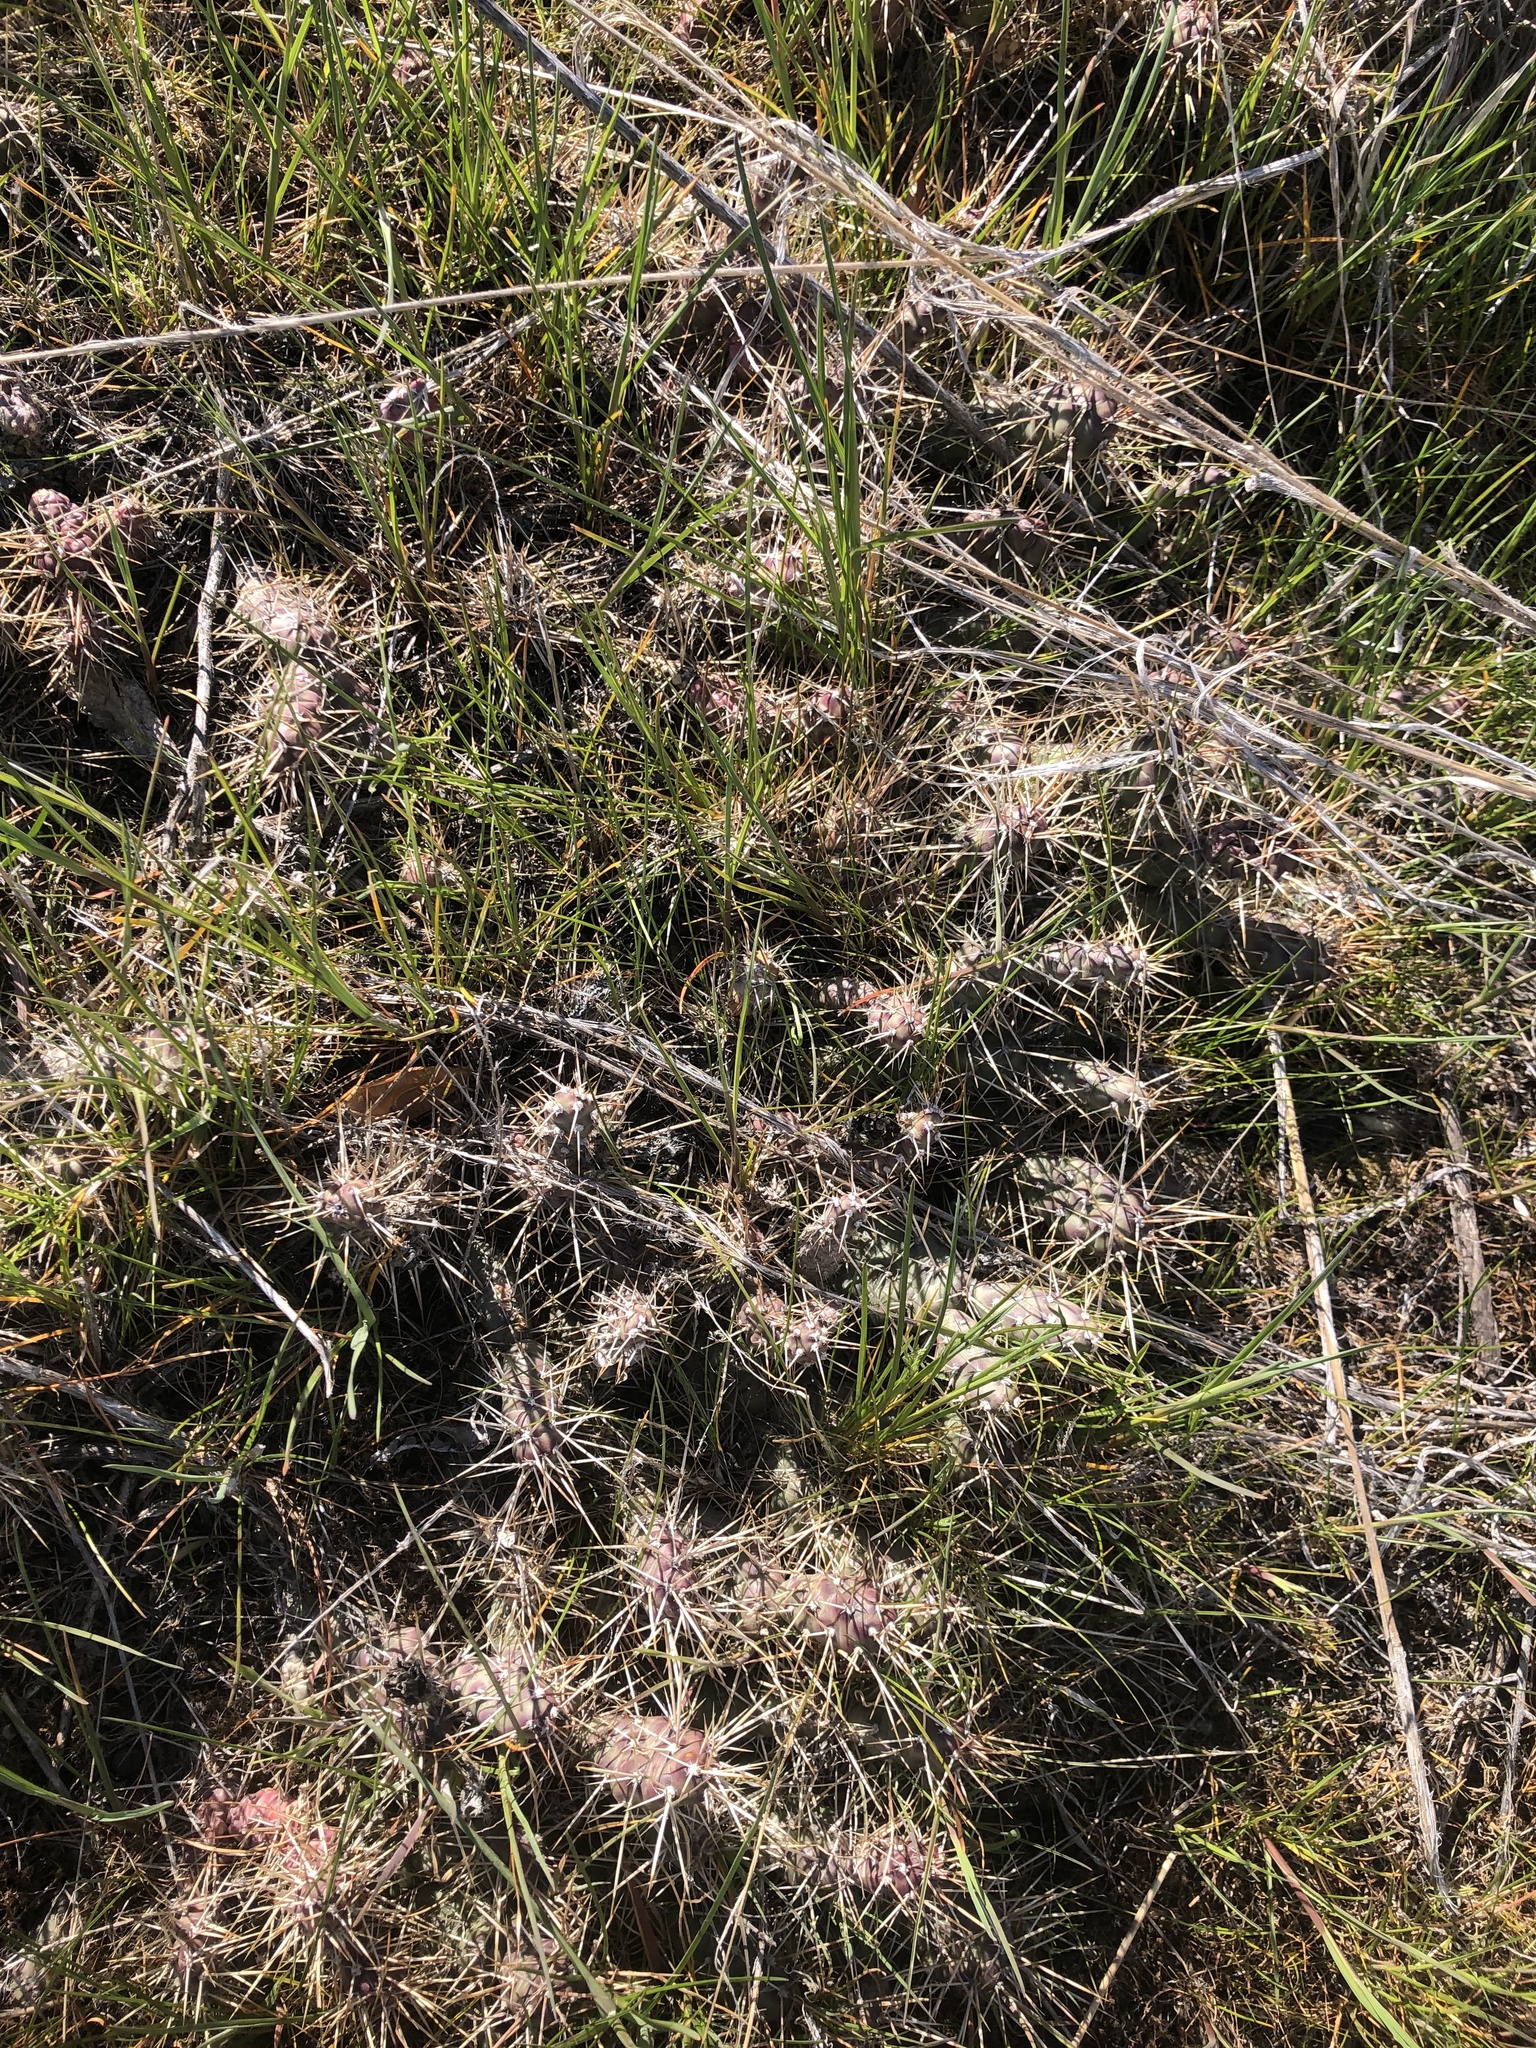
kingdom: Plantae
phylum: Tracheophyta
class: Magnoliopsida
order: Caryophyllales
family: Cactaceae
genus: Opuntia
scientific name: Opuntia fragilis
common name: Brittle cactus
